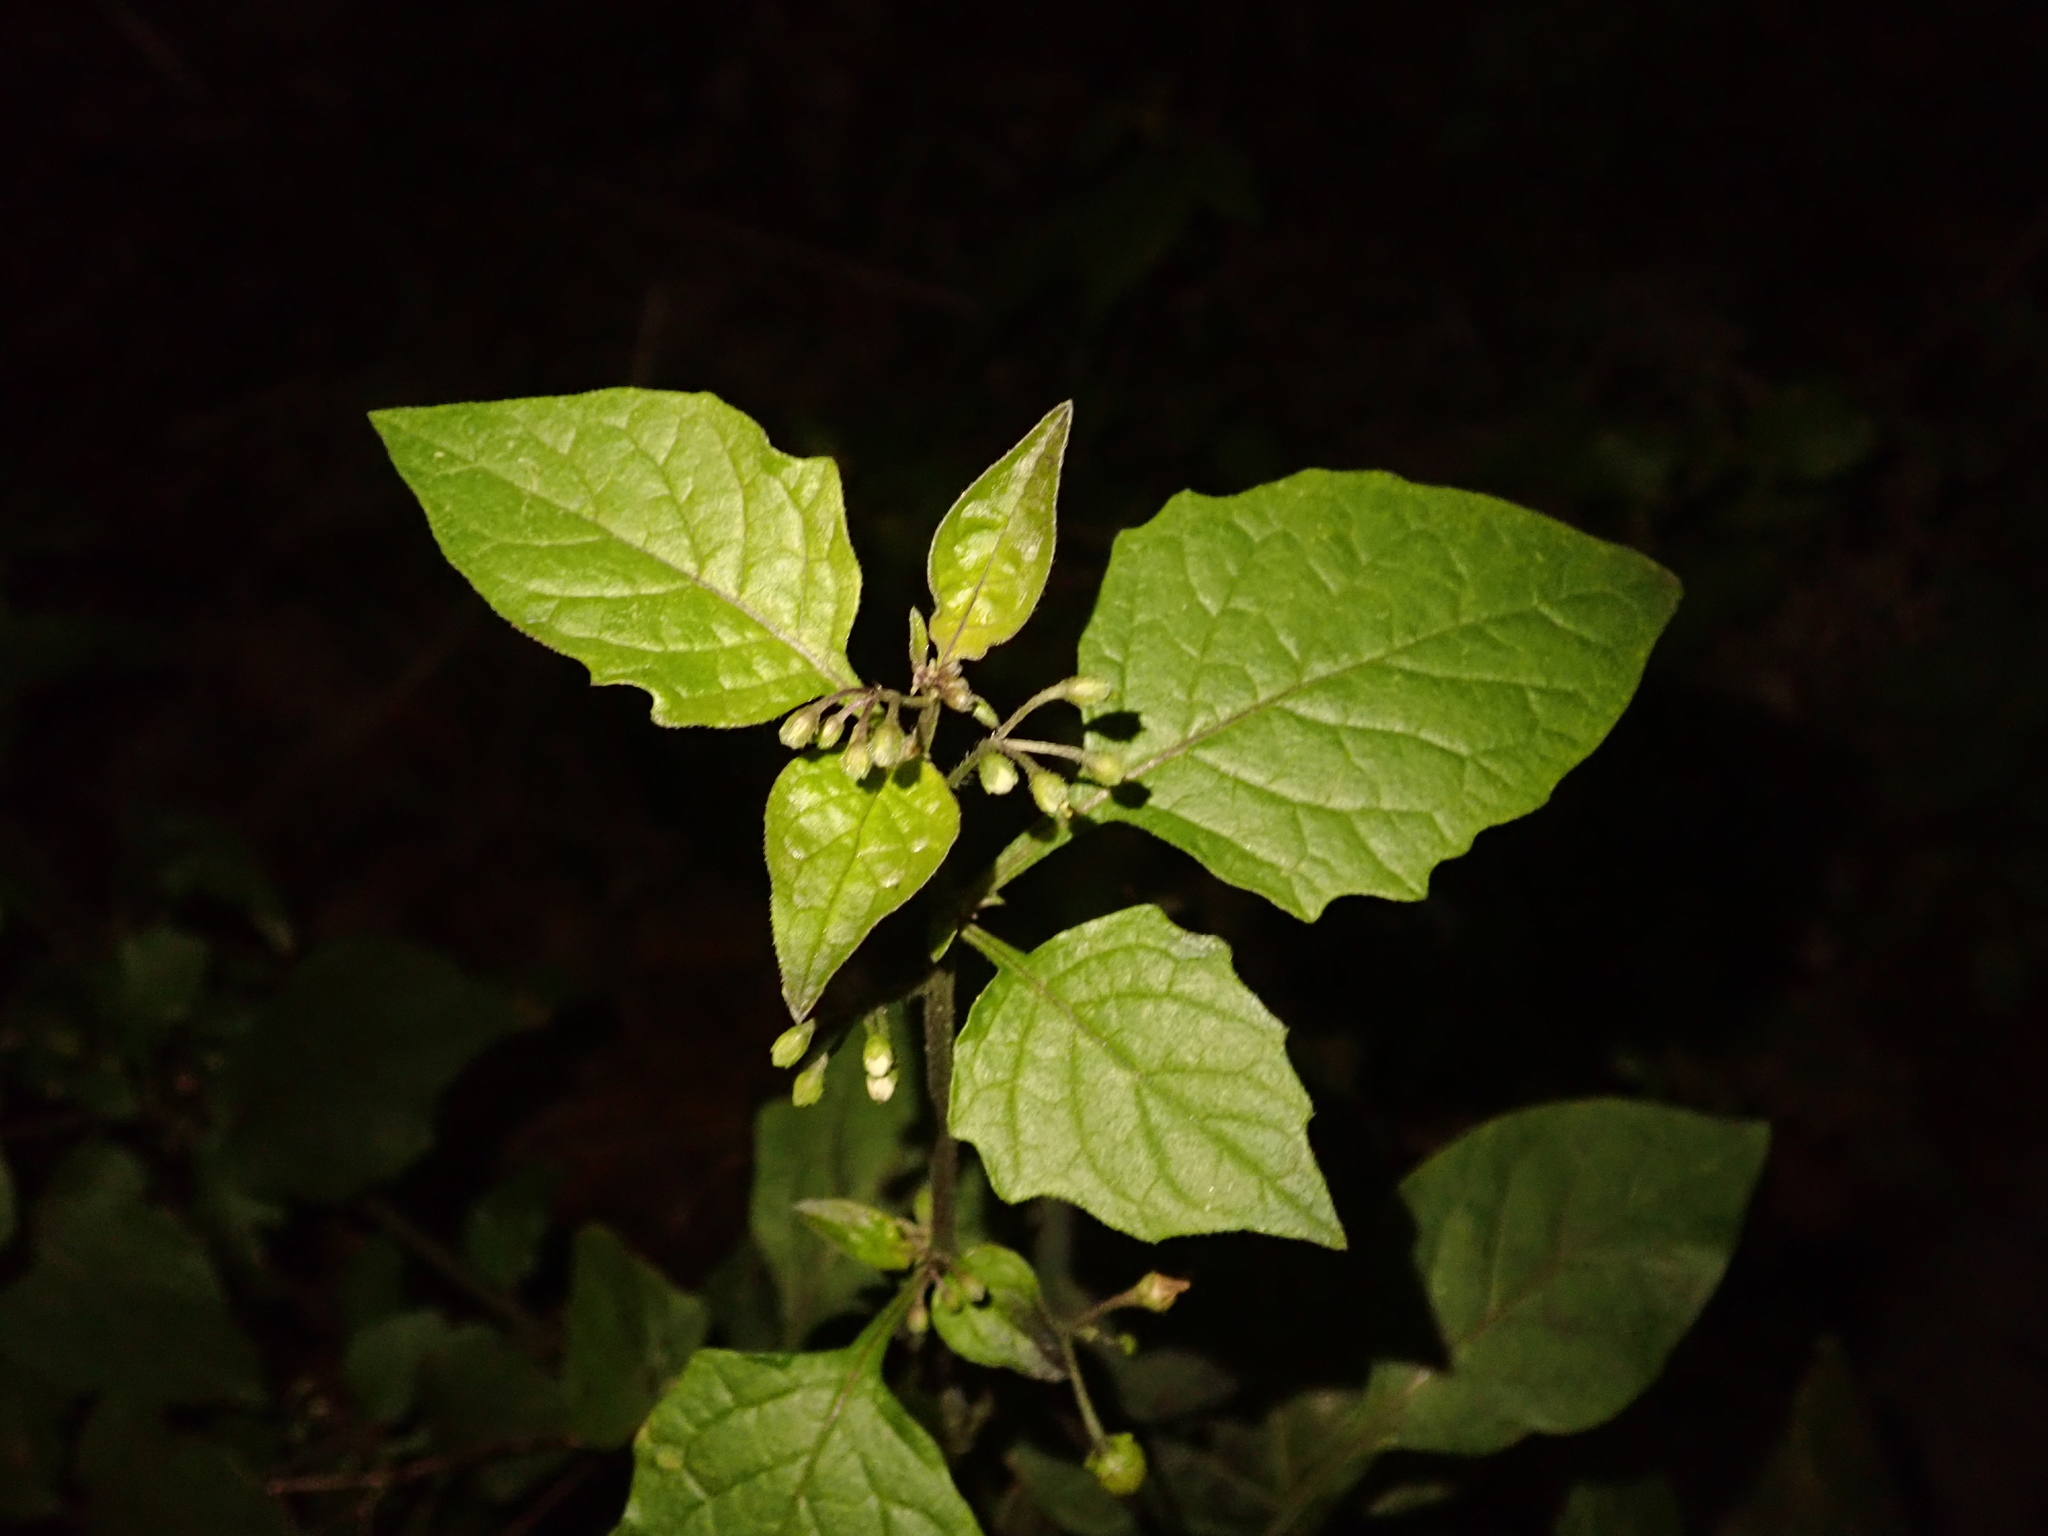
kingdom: Plantae
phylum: Tracheophyta
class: Magnoliopsida
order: Solanales
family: Solanaceae
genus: Solanum
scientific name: Solanum nigrum
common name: Black nightshade
